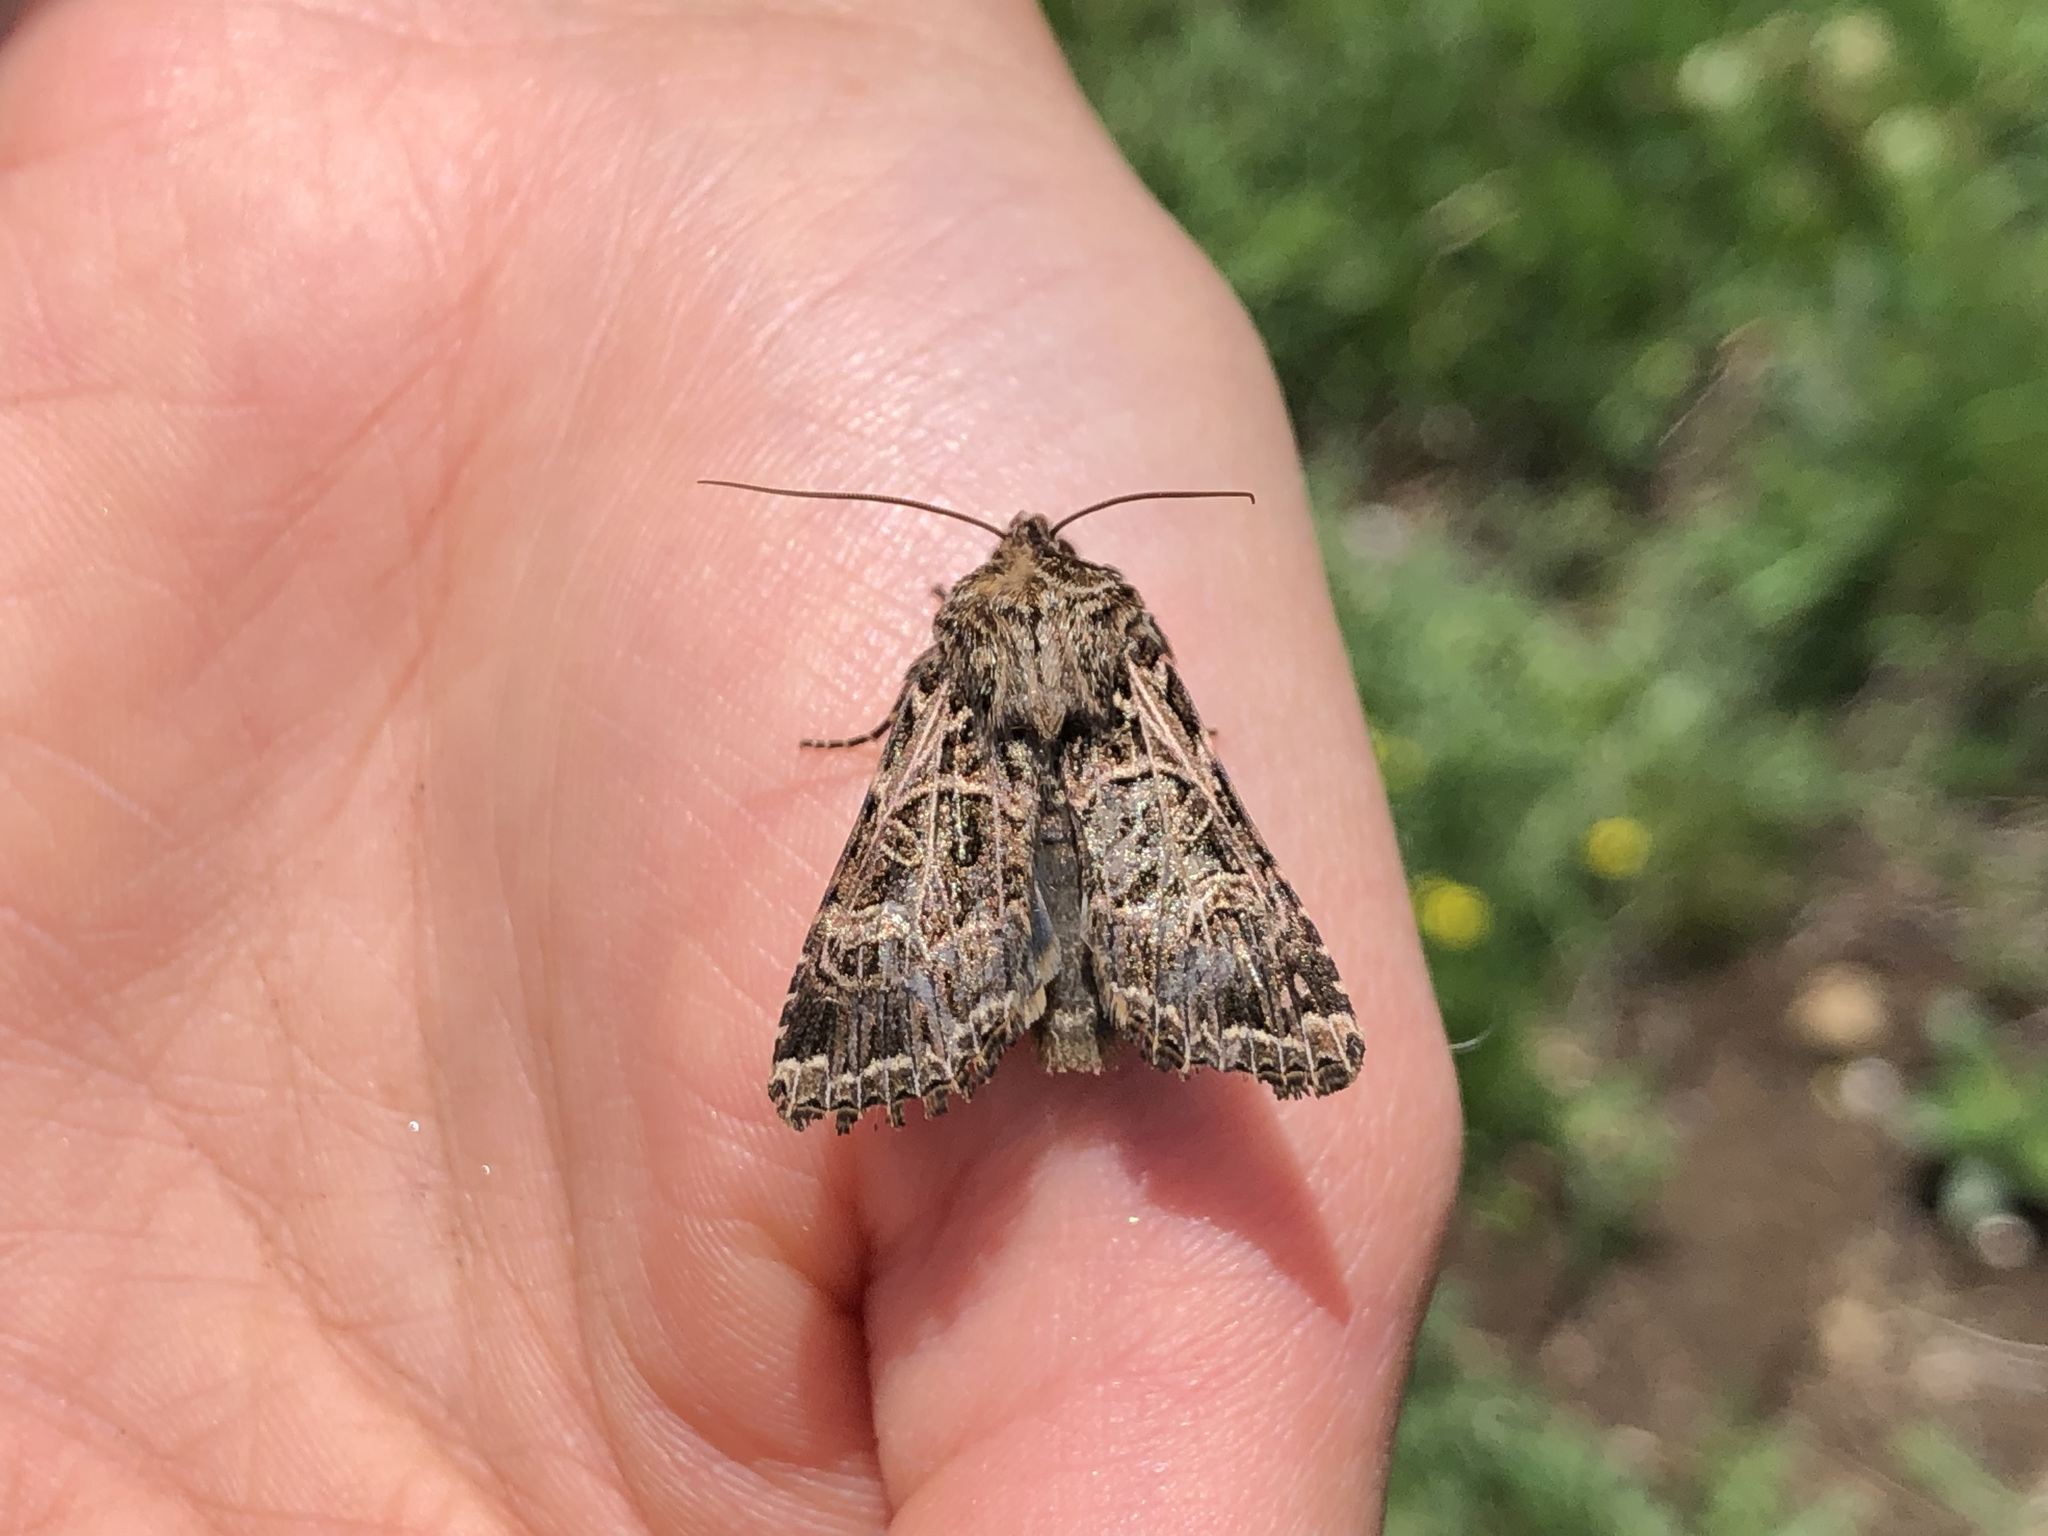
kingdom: Animalia
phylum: Arthropoda
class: Insecta
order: Lepidoptera
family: Noctuidae
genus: Sideridis
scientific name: Sideridis reticulata
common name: Bordered gothic
